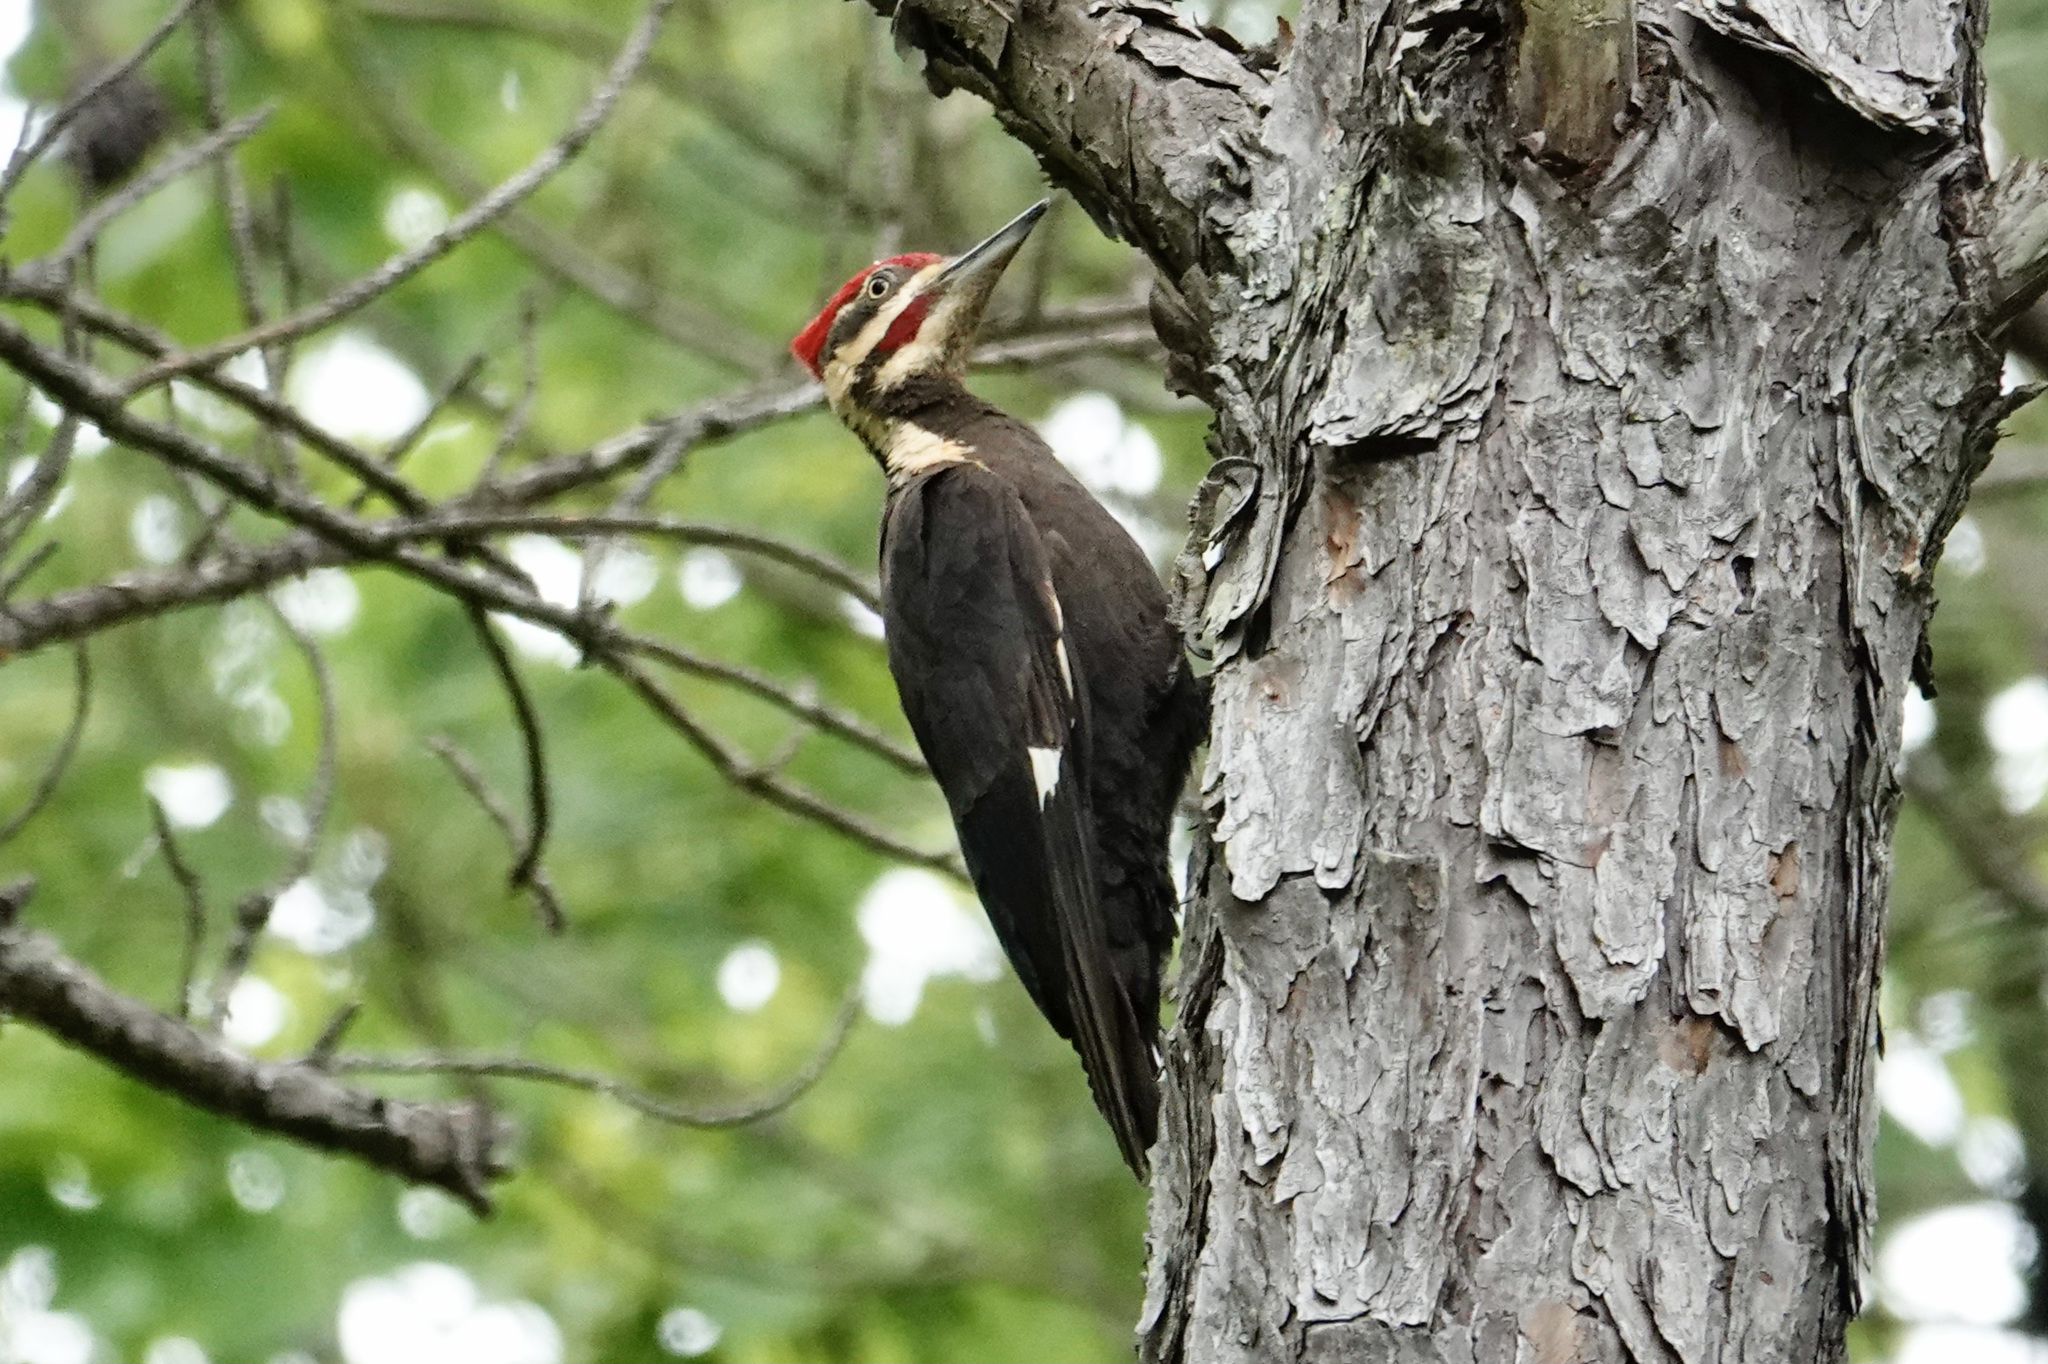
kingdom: Animalia
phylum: Chordata
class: Aves
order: Piciformes
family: Picidae
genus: Dryocopus
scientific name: Dryocopus pileatus
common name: Pileated woodpecker
